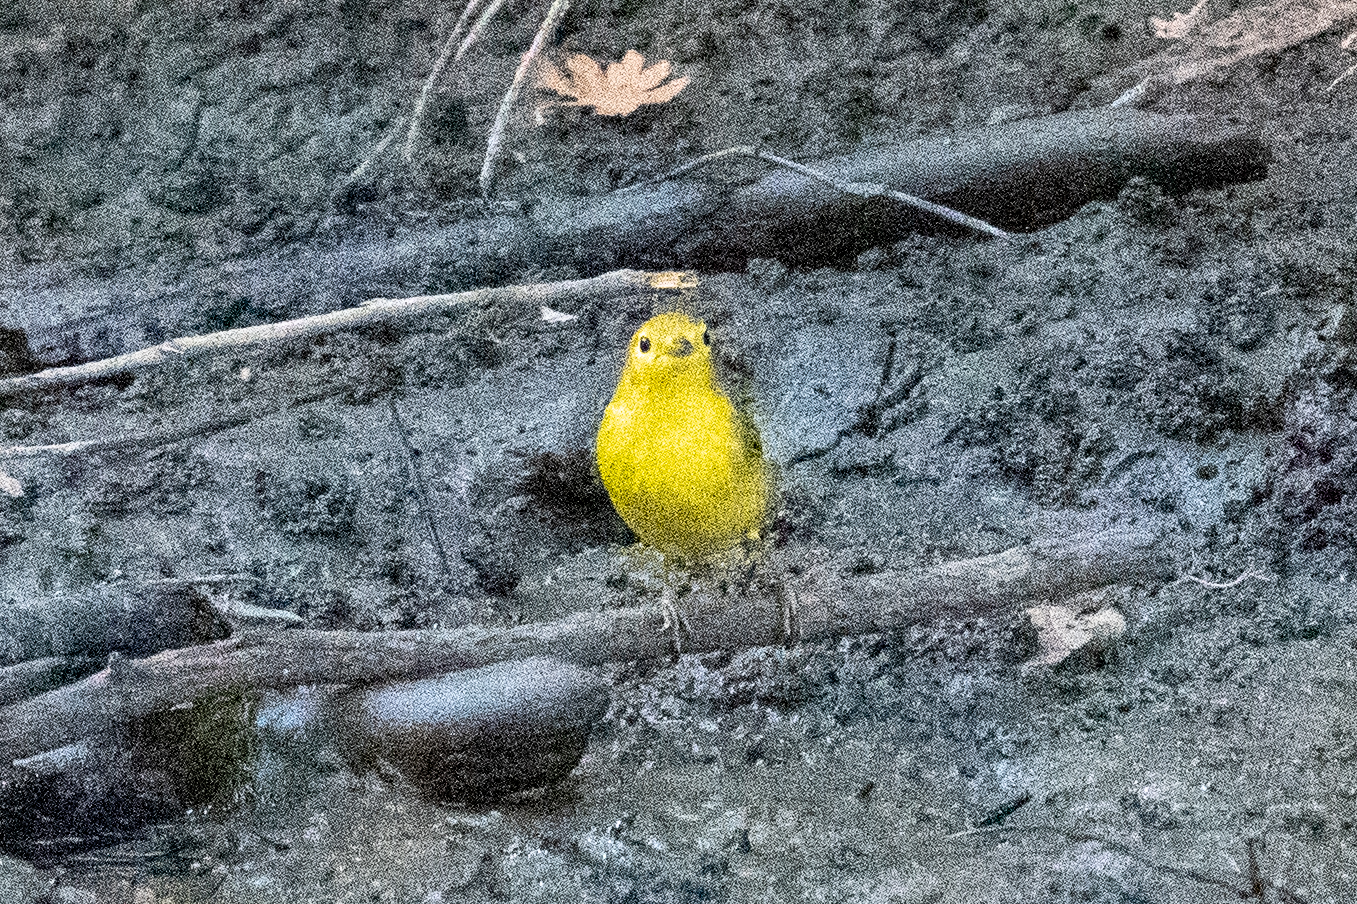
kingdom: Animalia
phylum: Chordata
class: Aves
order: Passeriformes
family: Parulidae
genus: Setophaga
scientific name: Setophaga petechia
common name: Yellow warbler
